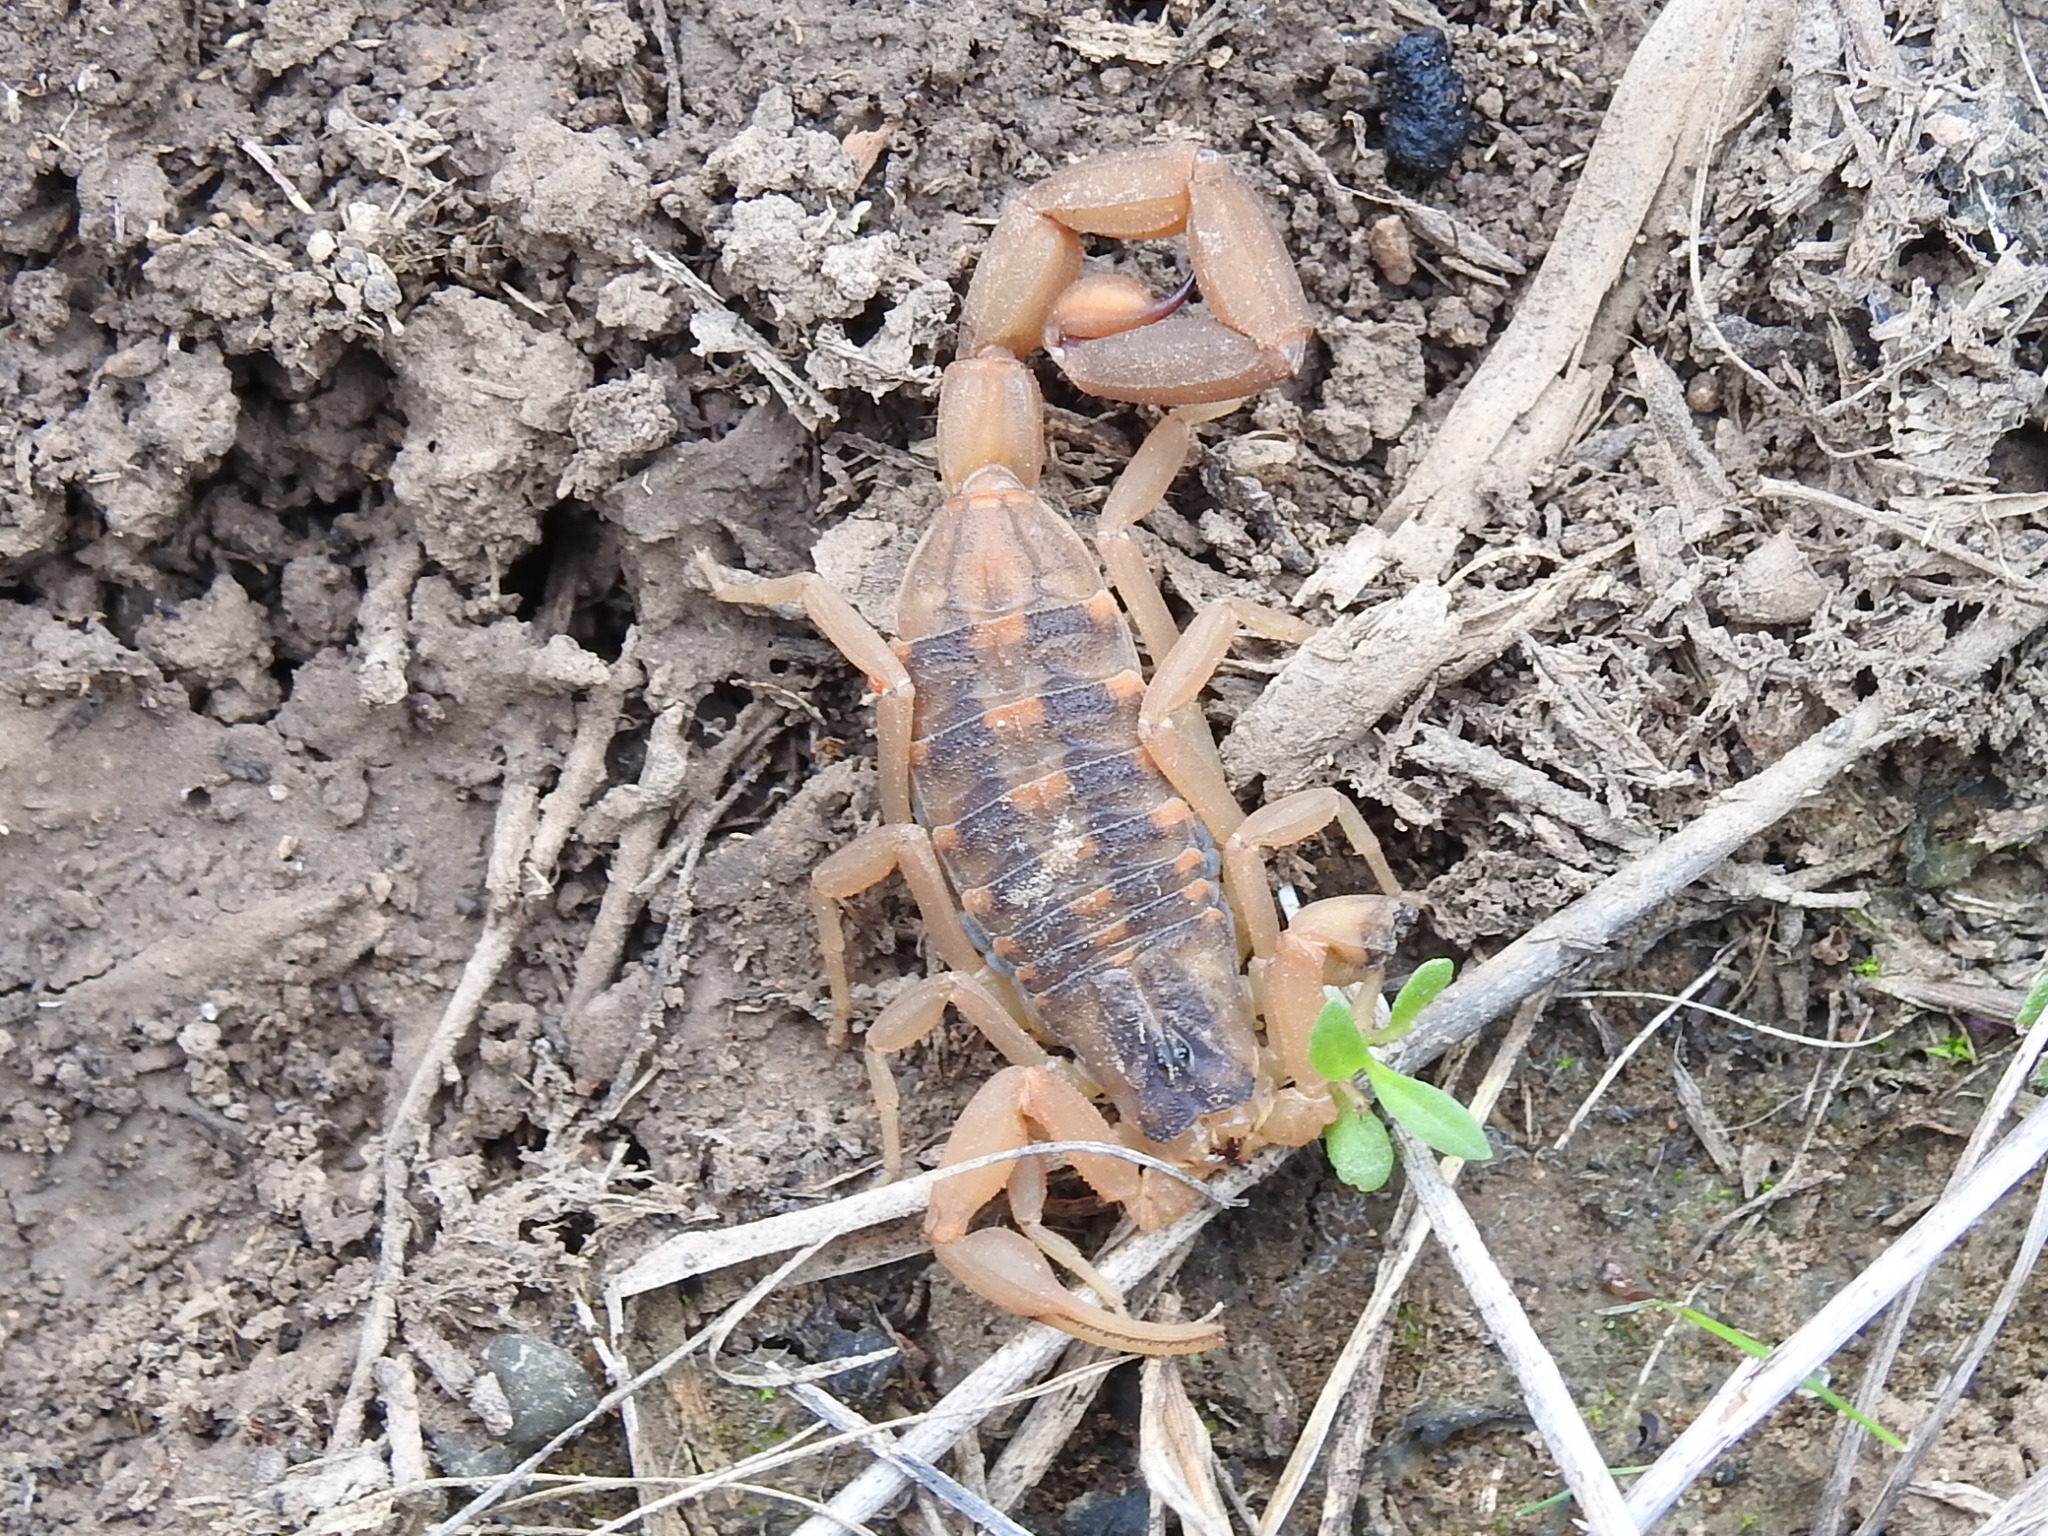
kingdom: Animalia
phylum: Arthropoda
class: Arachnida
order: Scorpiones
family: Buthidae
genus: Centruroides
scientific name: Centruroides vittatus
